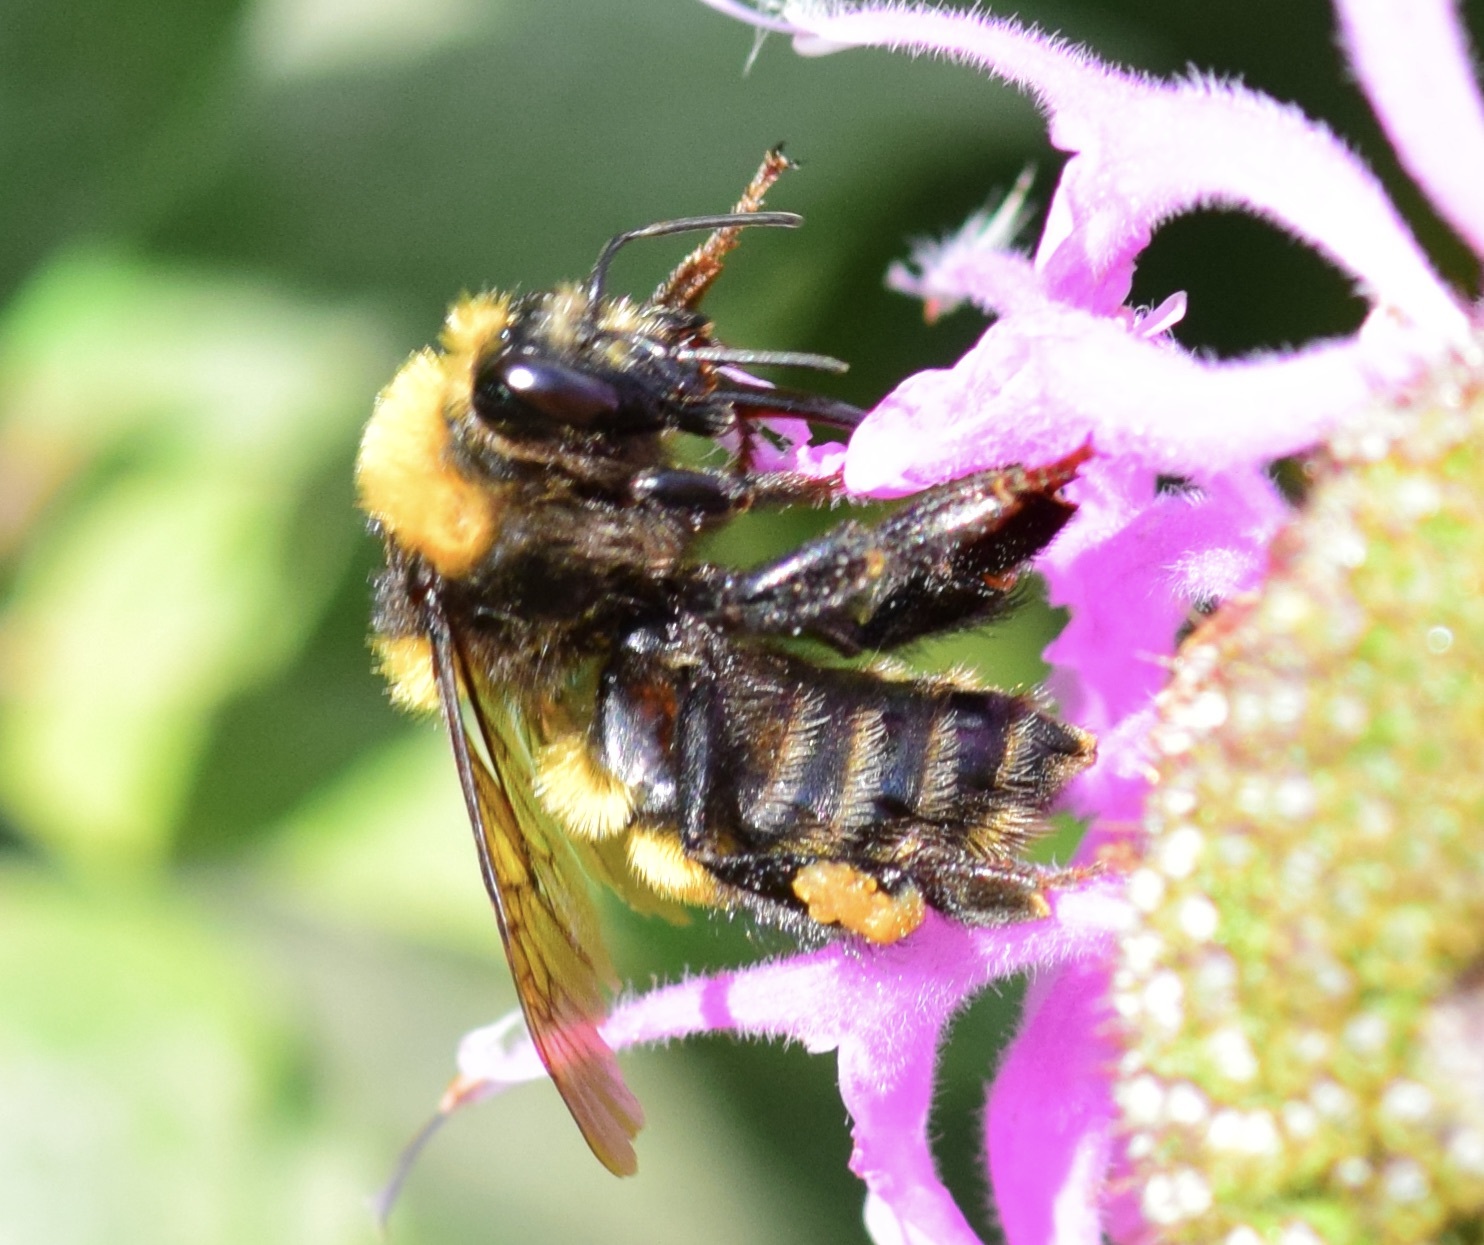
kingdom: Animalia
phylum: Arthropoda
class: Insecta
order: Hymenoptera
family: Apidae
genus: Bombus
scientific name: Bombus borealis
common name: Northern amber bumble bee
